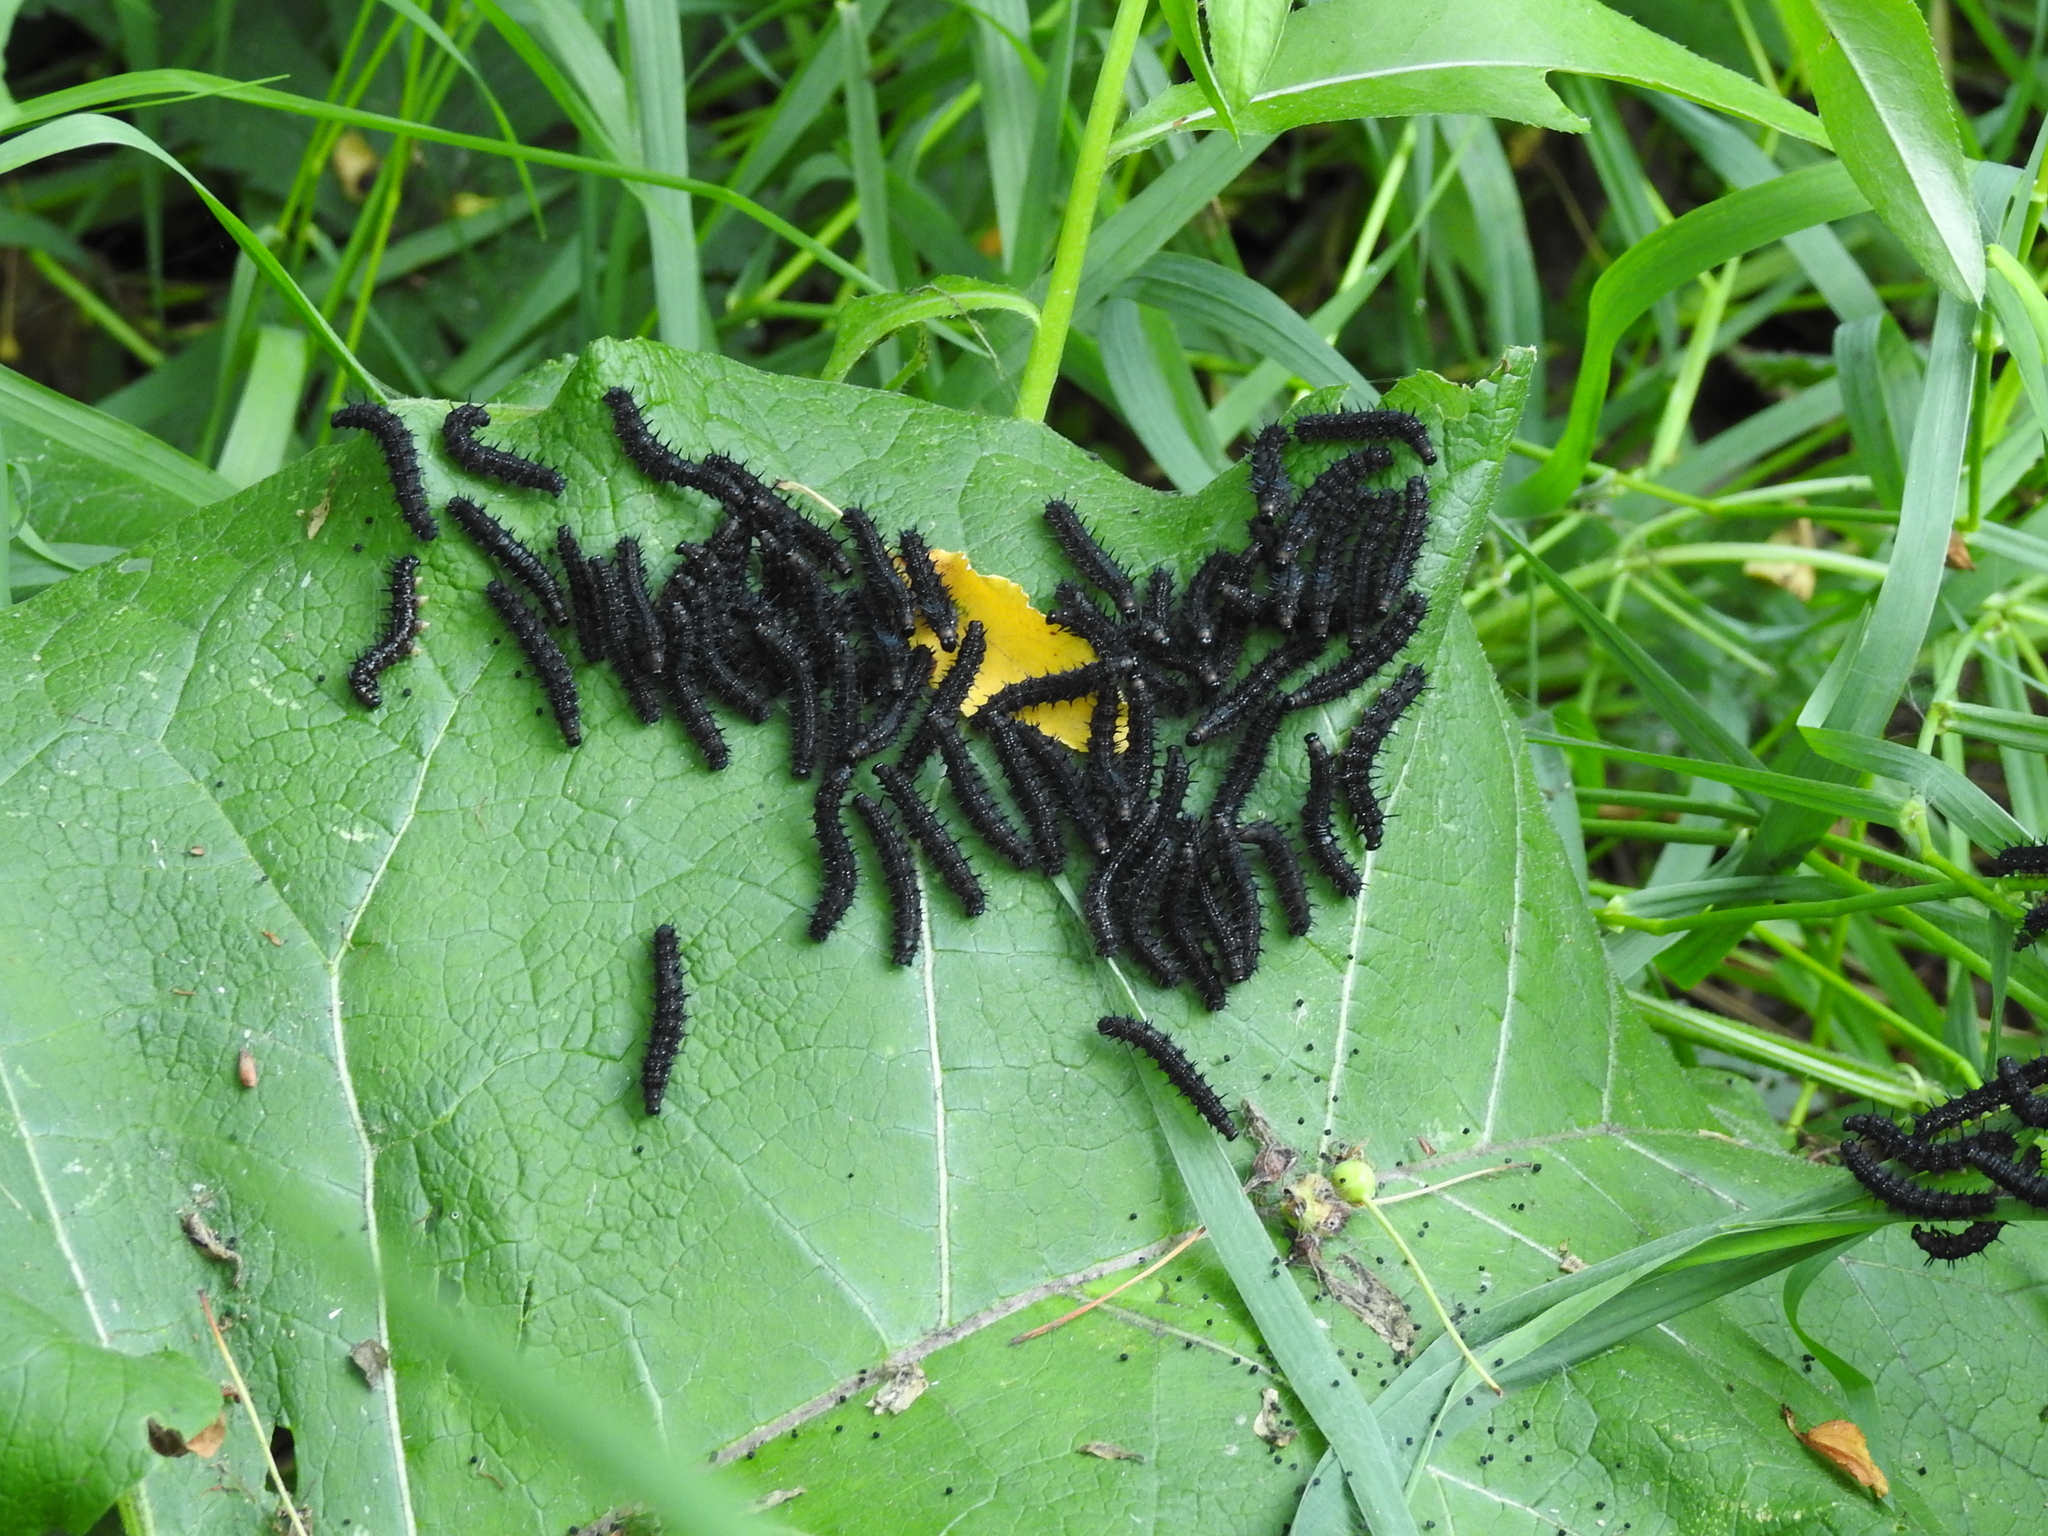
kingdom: Animalia
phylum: Arthropoda
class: Insecta
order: Lepidoptera
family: Nymphalidae
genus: Aglais
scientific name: Aglais io
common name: Peacock
